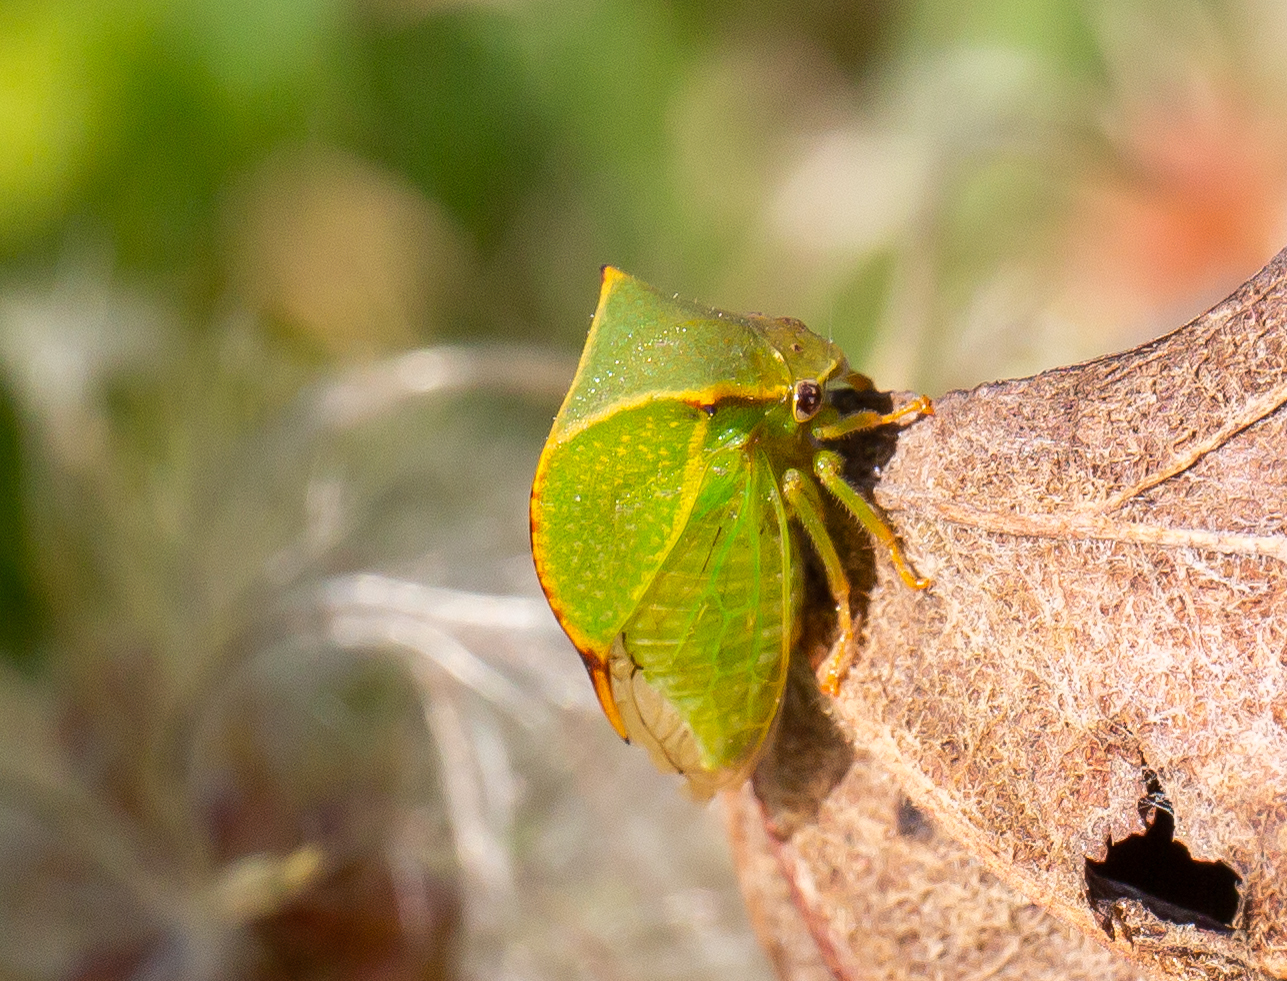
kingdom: Animalia
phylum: Arthropoda
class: Insecta
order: Hemiptera
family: Membracidae
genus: Stictocephala
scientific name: Stictocephala bisonia
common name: American buffalo treehopper
